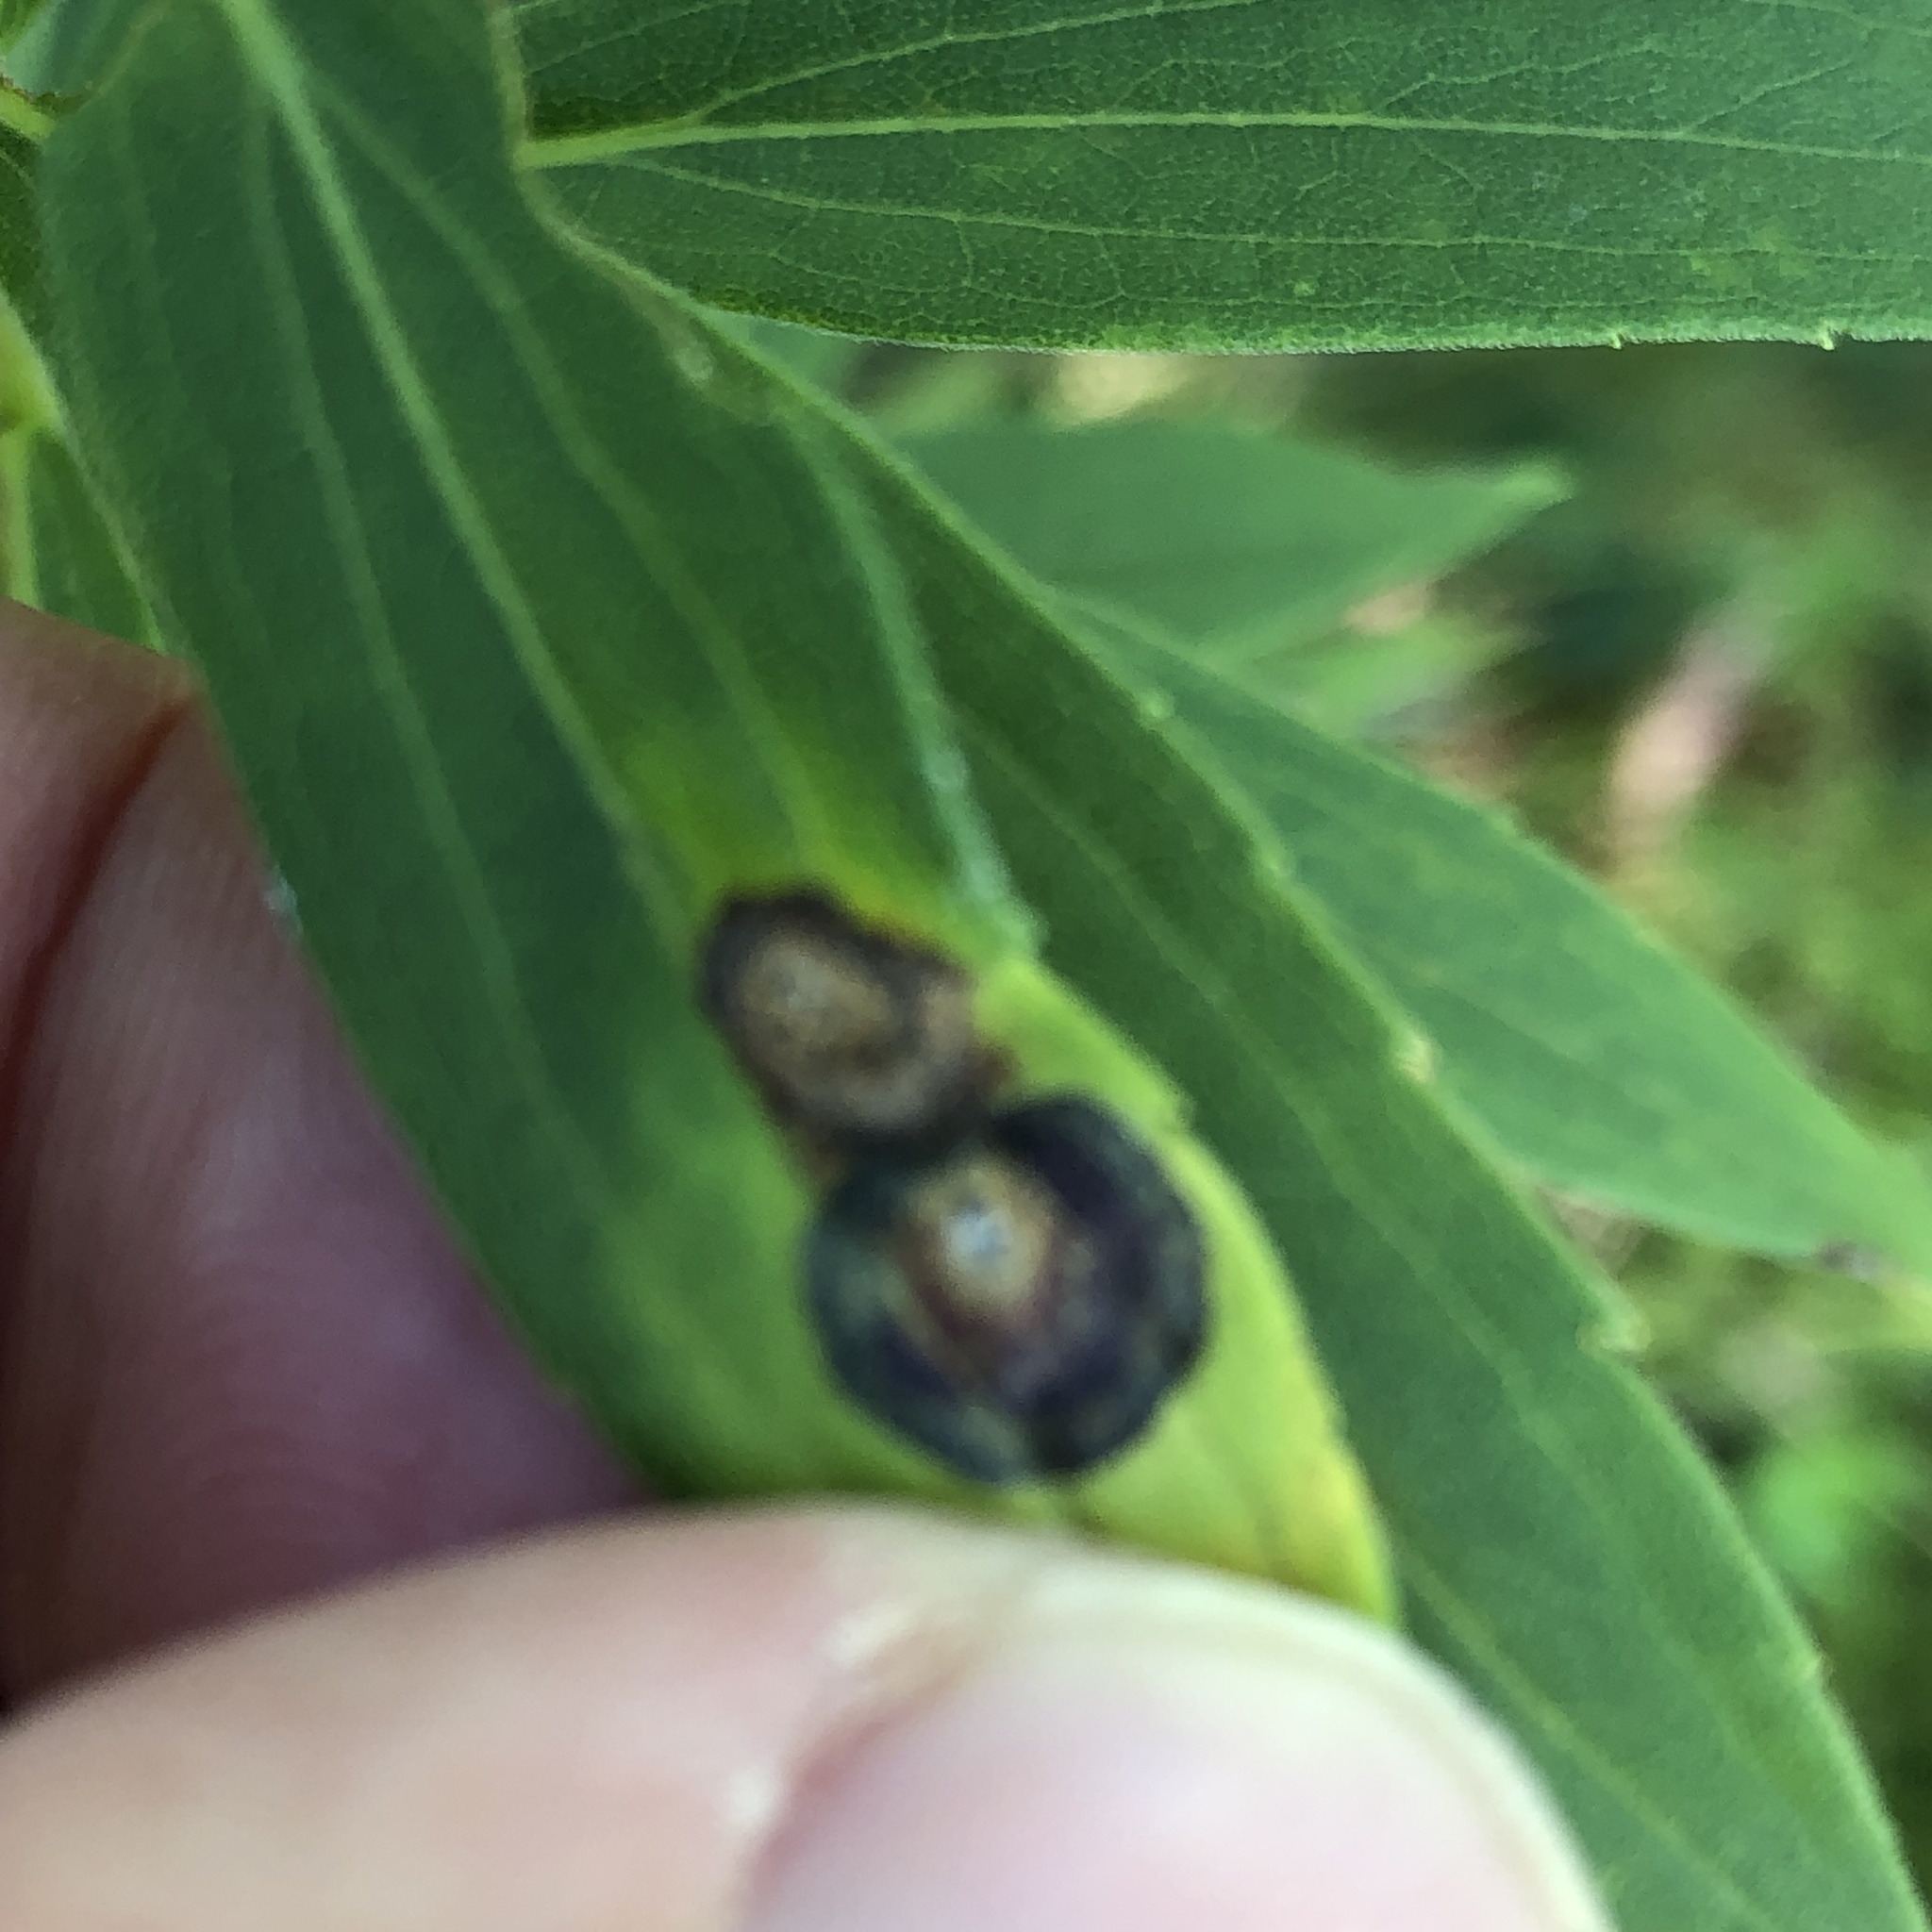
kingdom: Animalia
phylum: Arthropoda
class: Insecta
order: Diptera
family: Cecidomyiidae
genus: Asteromyia
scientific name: Asteromyia carbonifera
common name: Carbonifera goldenrod gall midge
